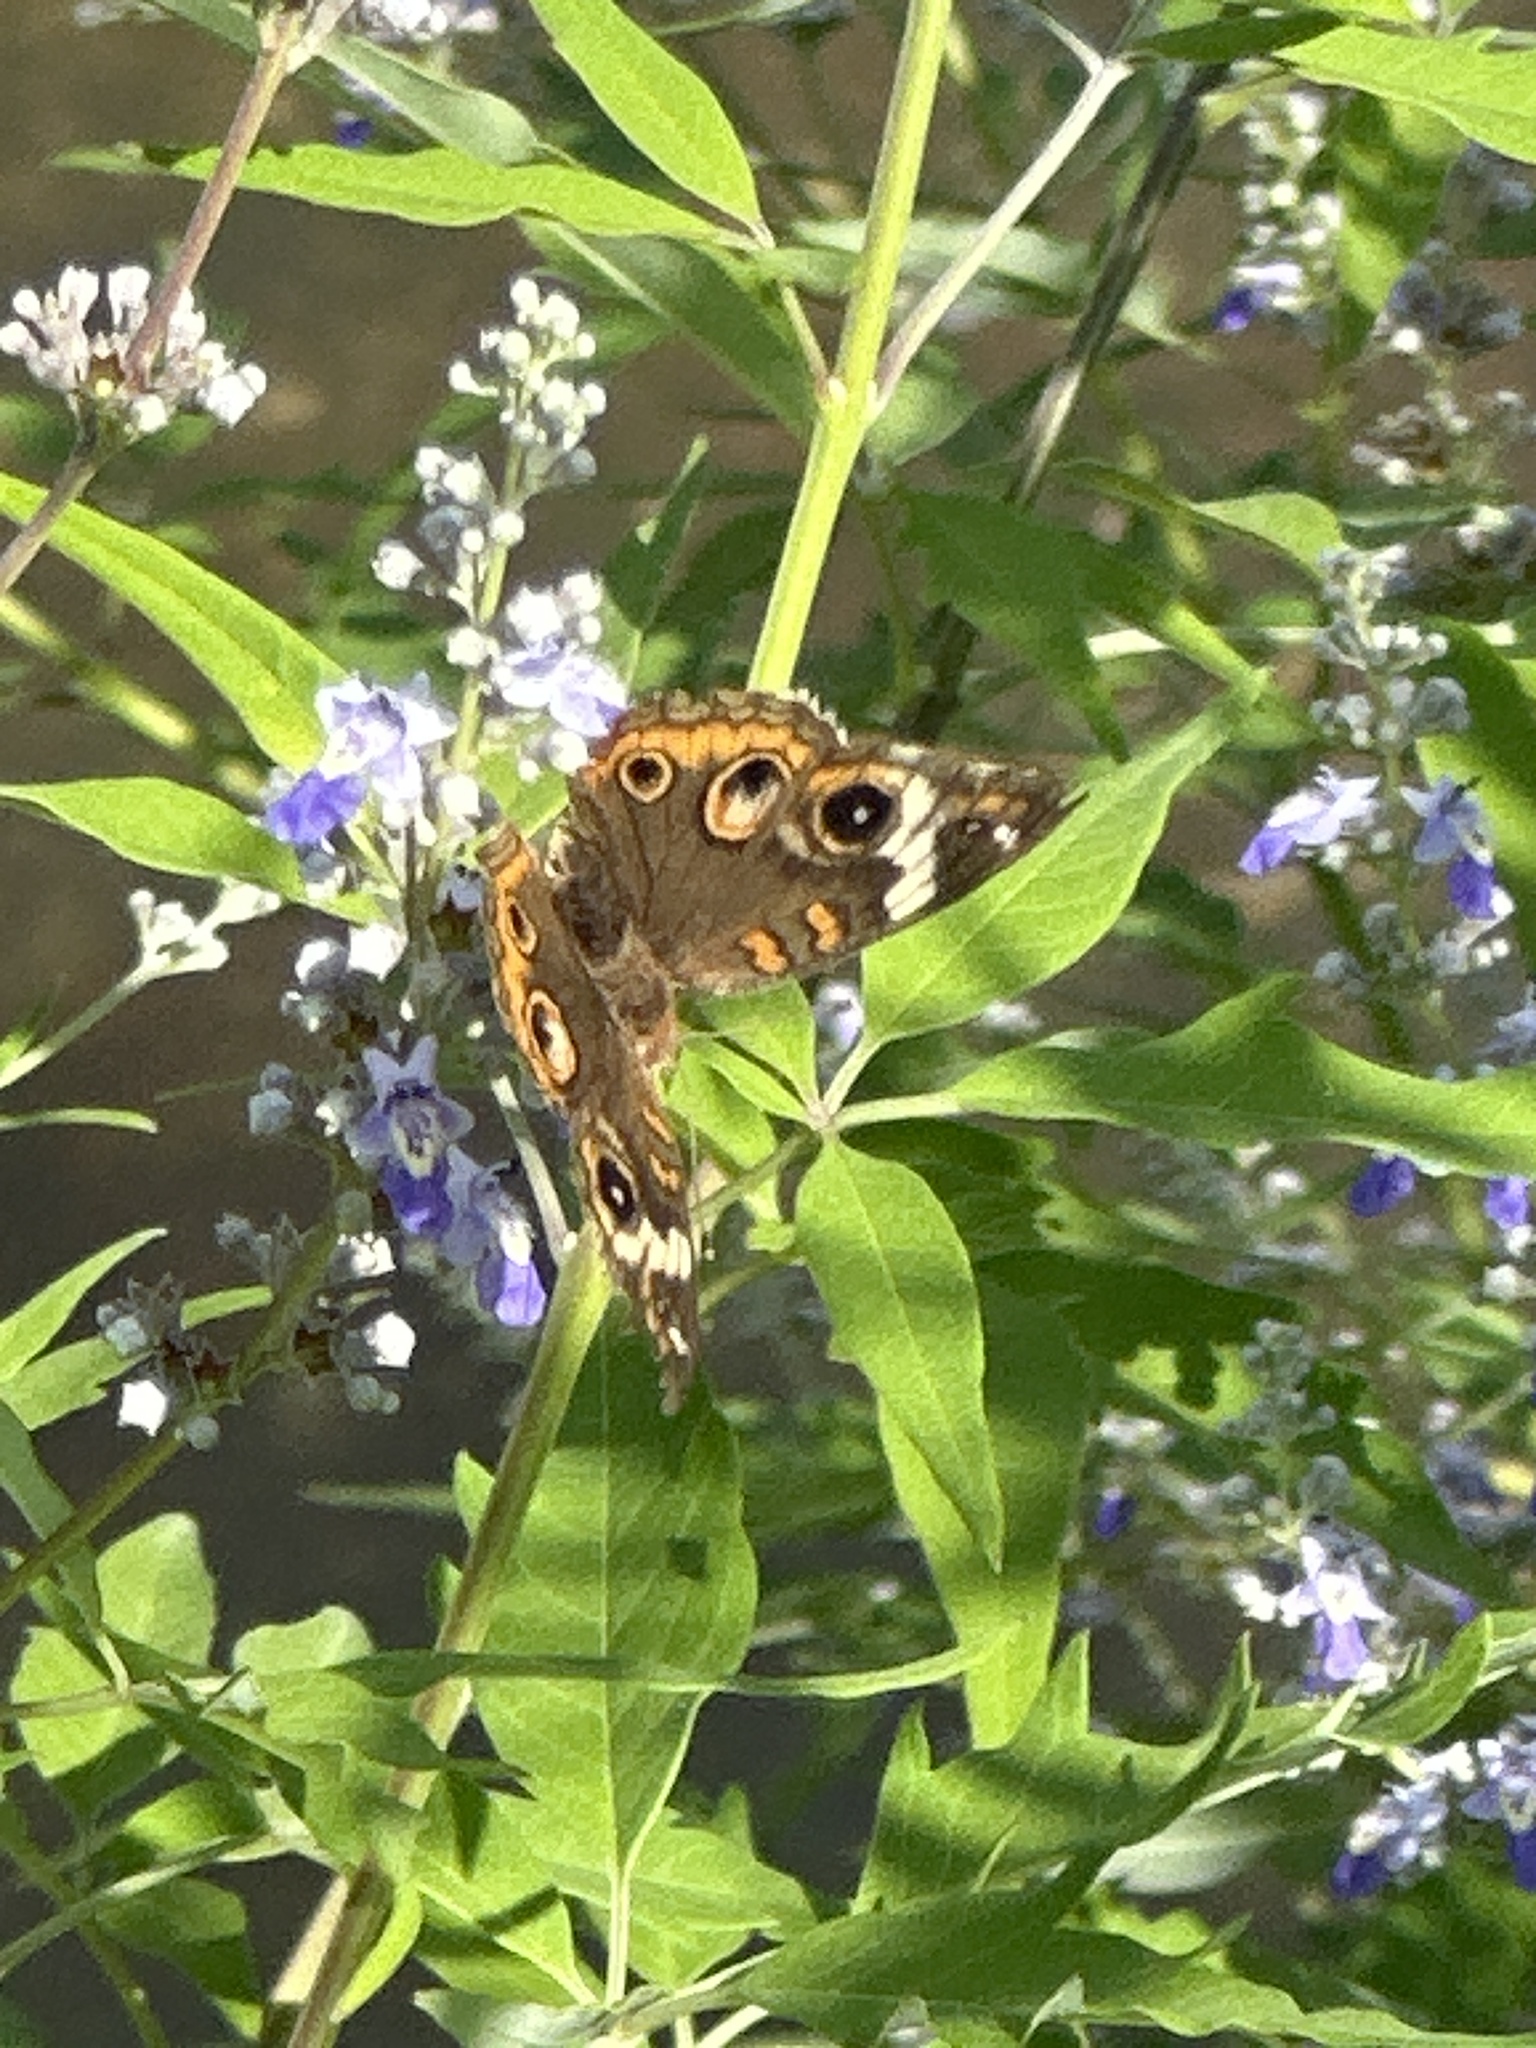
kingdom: Animalia
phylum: Arthropoda
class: Insecta
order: Lepidoptera
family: Nymphalidae
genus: Junonia
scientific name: Junonia coenia
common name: Common buckeye
